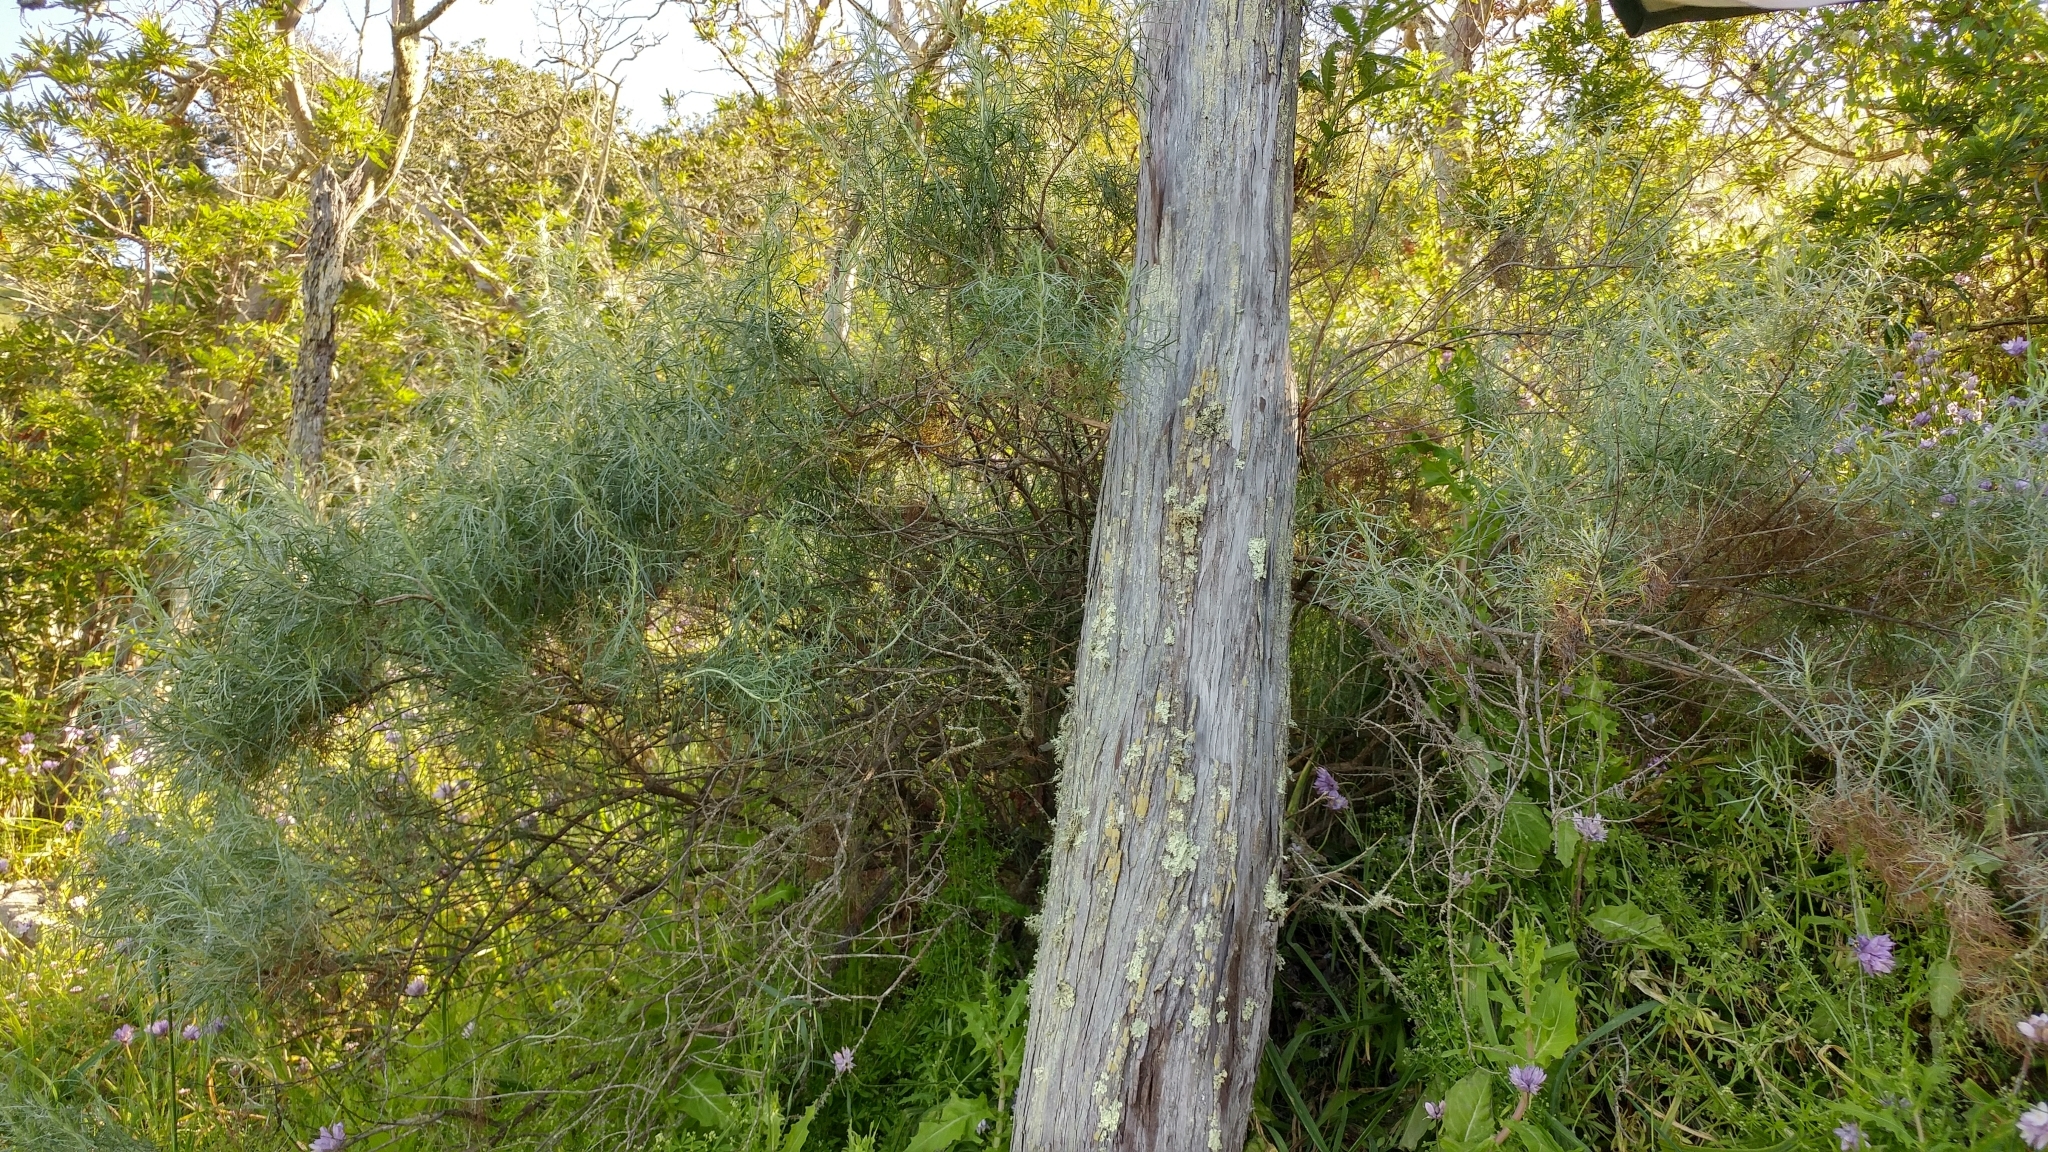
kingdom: Plantae
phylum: Tracheophyta
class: Magnoliopsida
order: Asterales
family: Asteraceae
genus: Artemisia
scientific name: Artemisia californica
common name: California sagebrush
